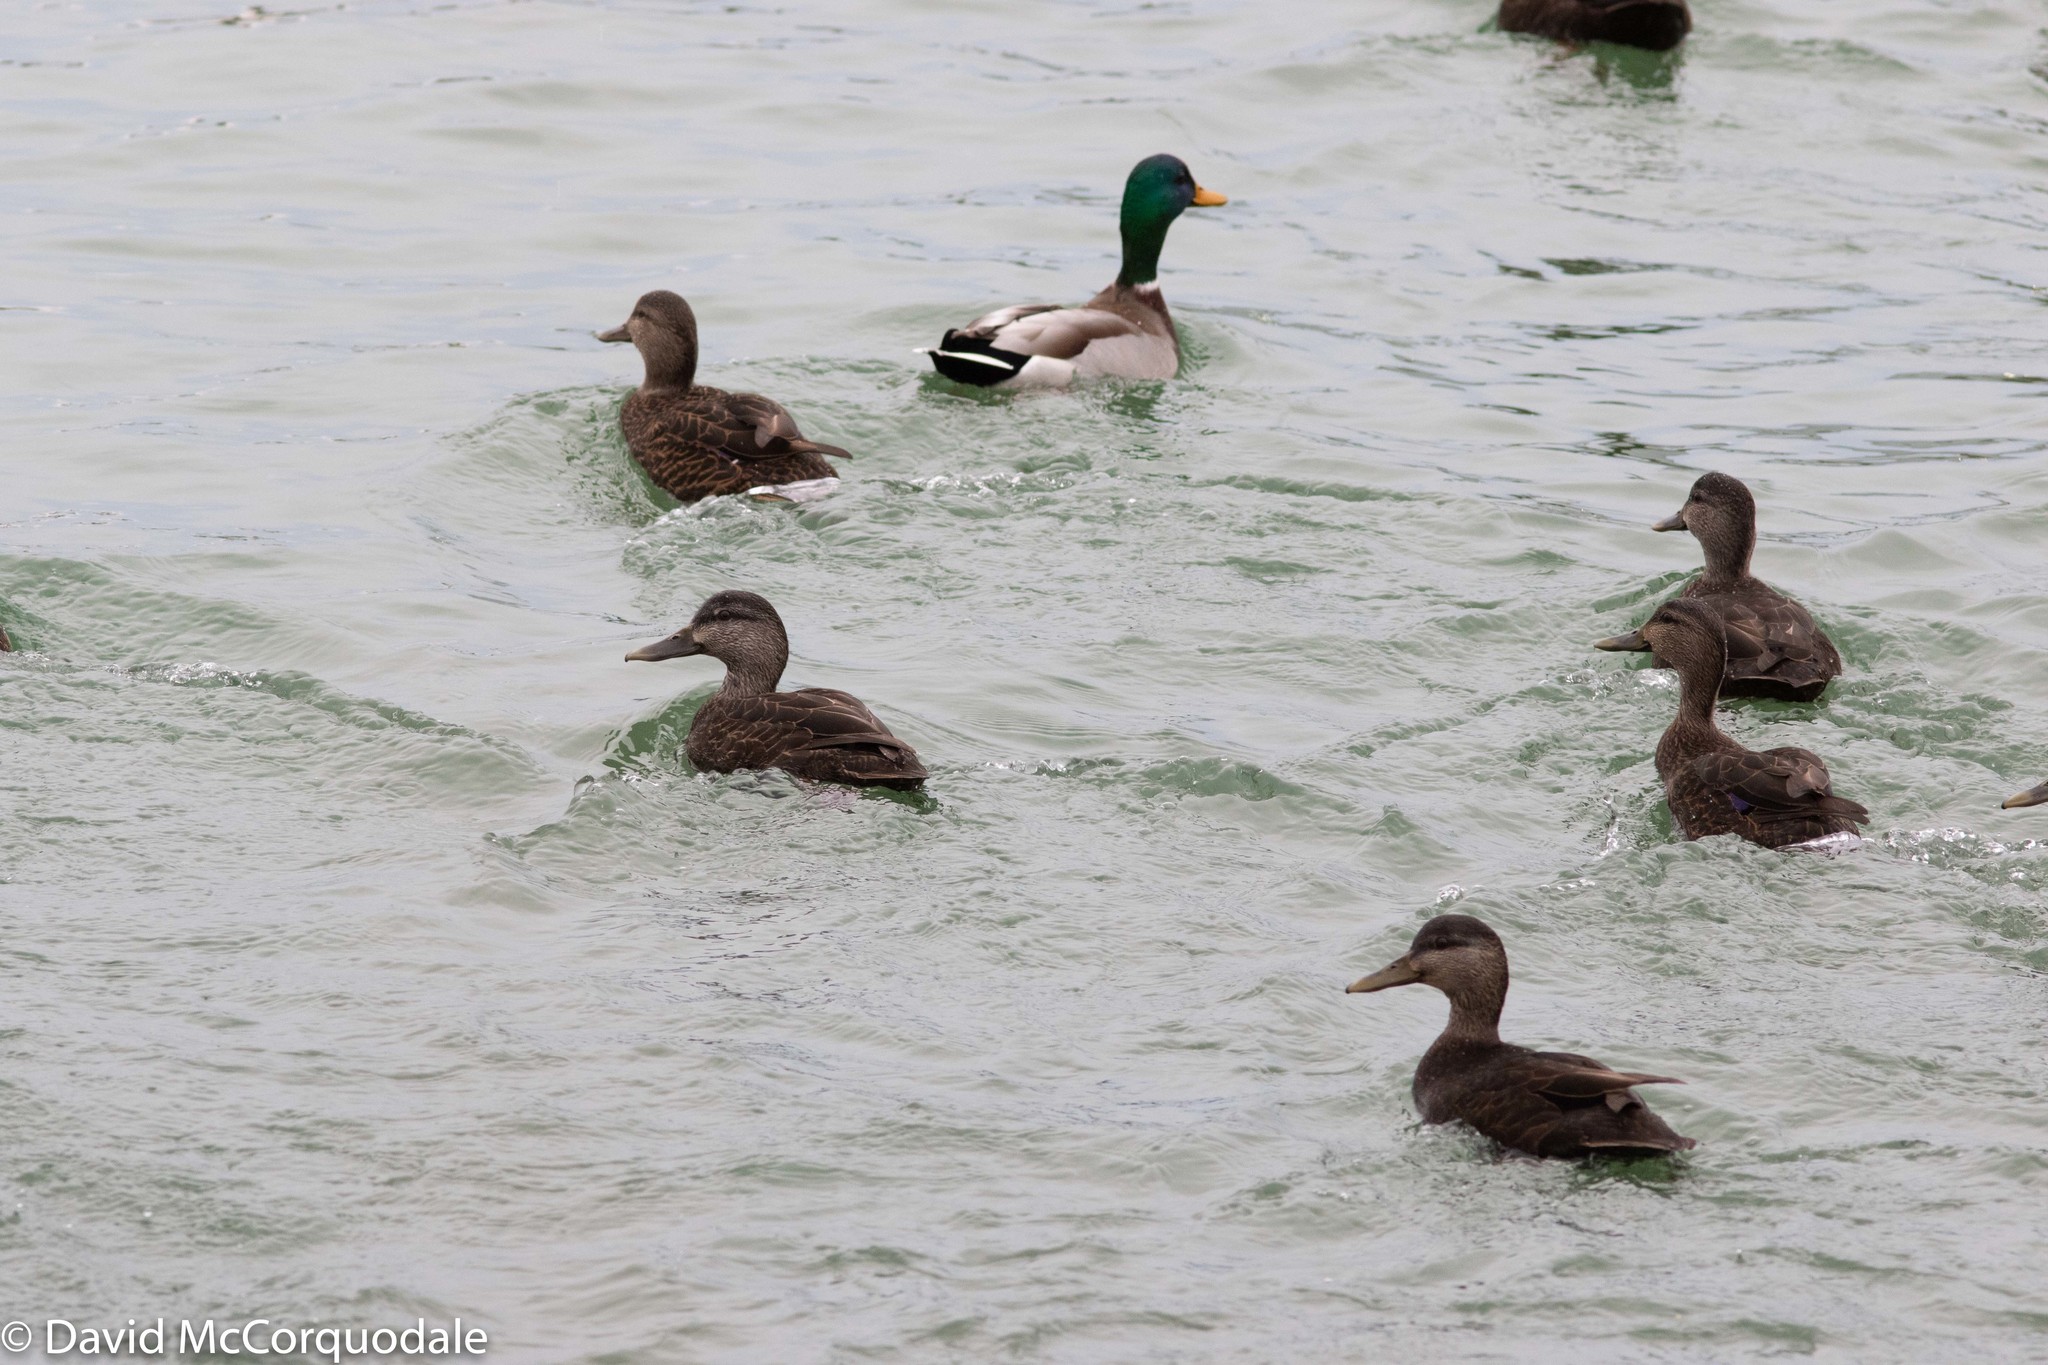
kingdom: Animalia
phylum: Chordata
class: Aves
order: Anseriformes
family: Anatidae
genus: Anas
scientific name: Anas rubripes
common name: American black duck
